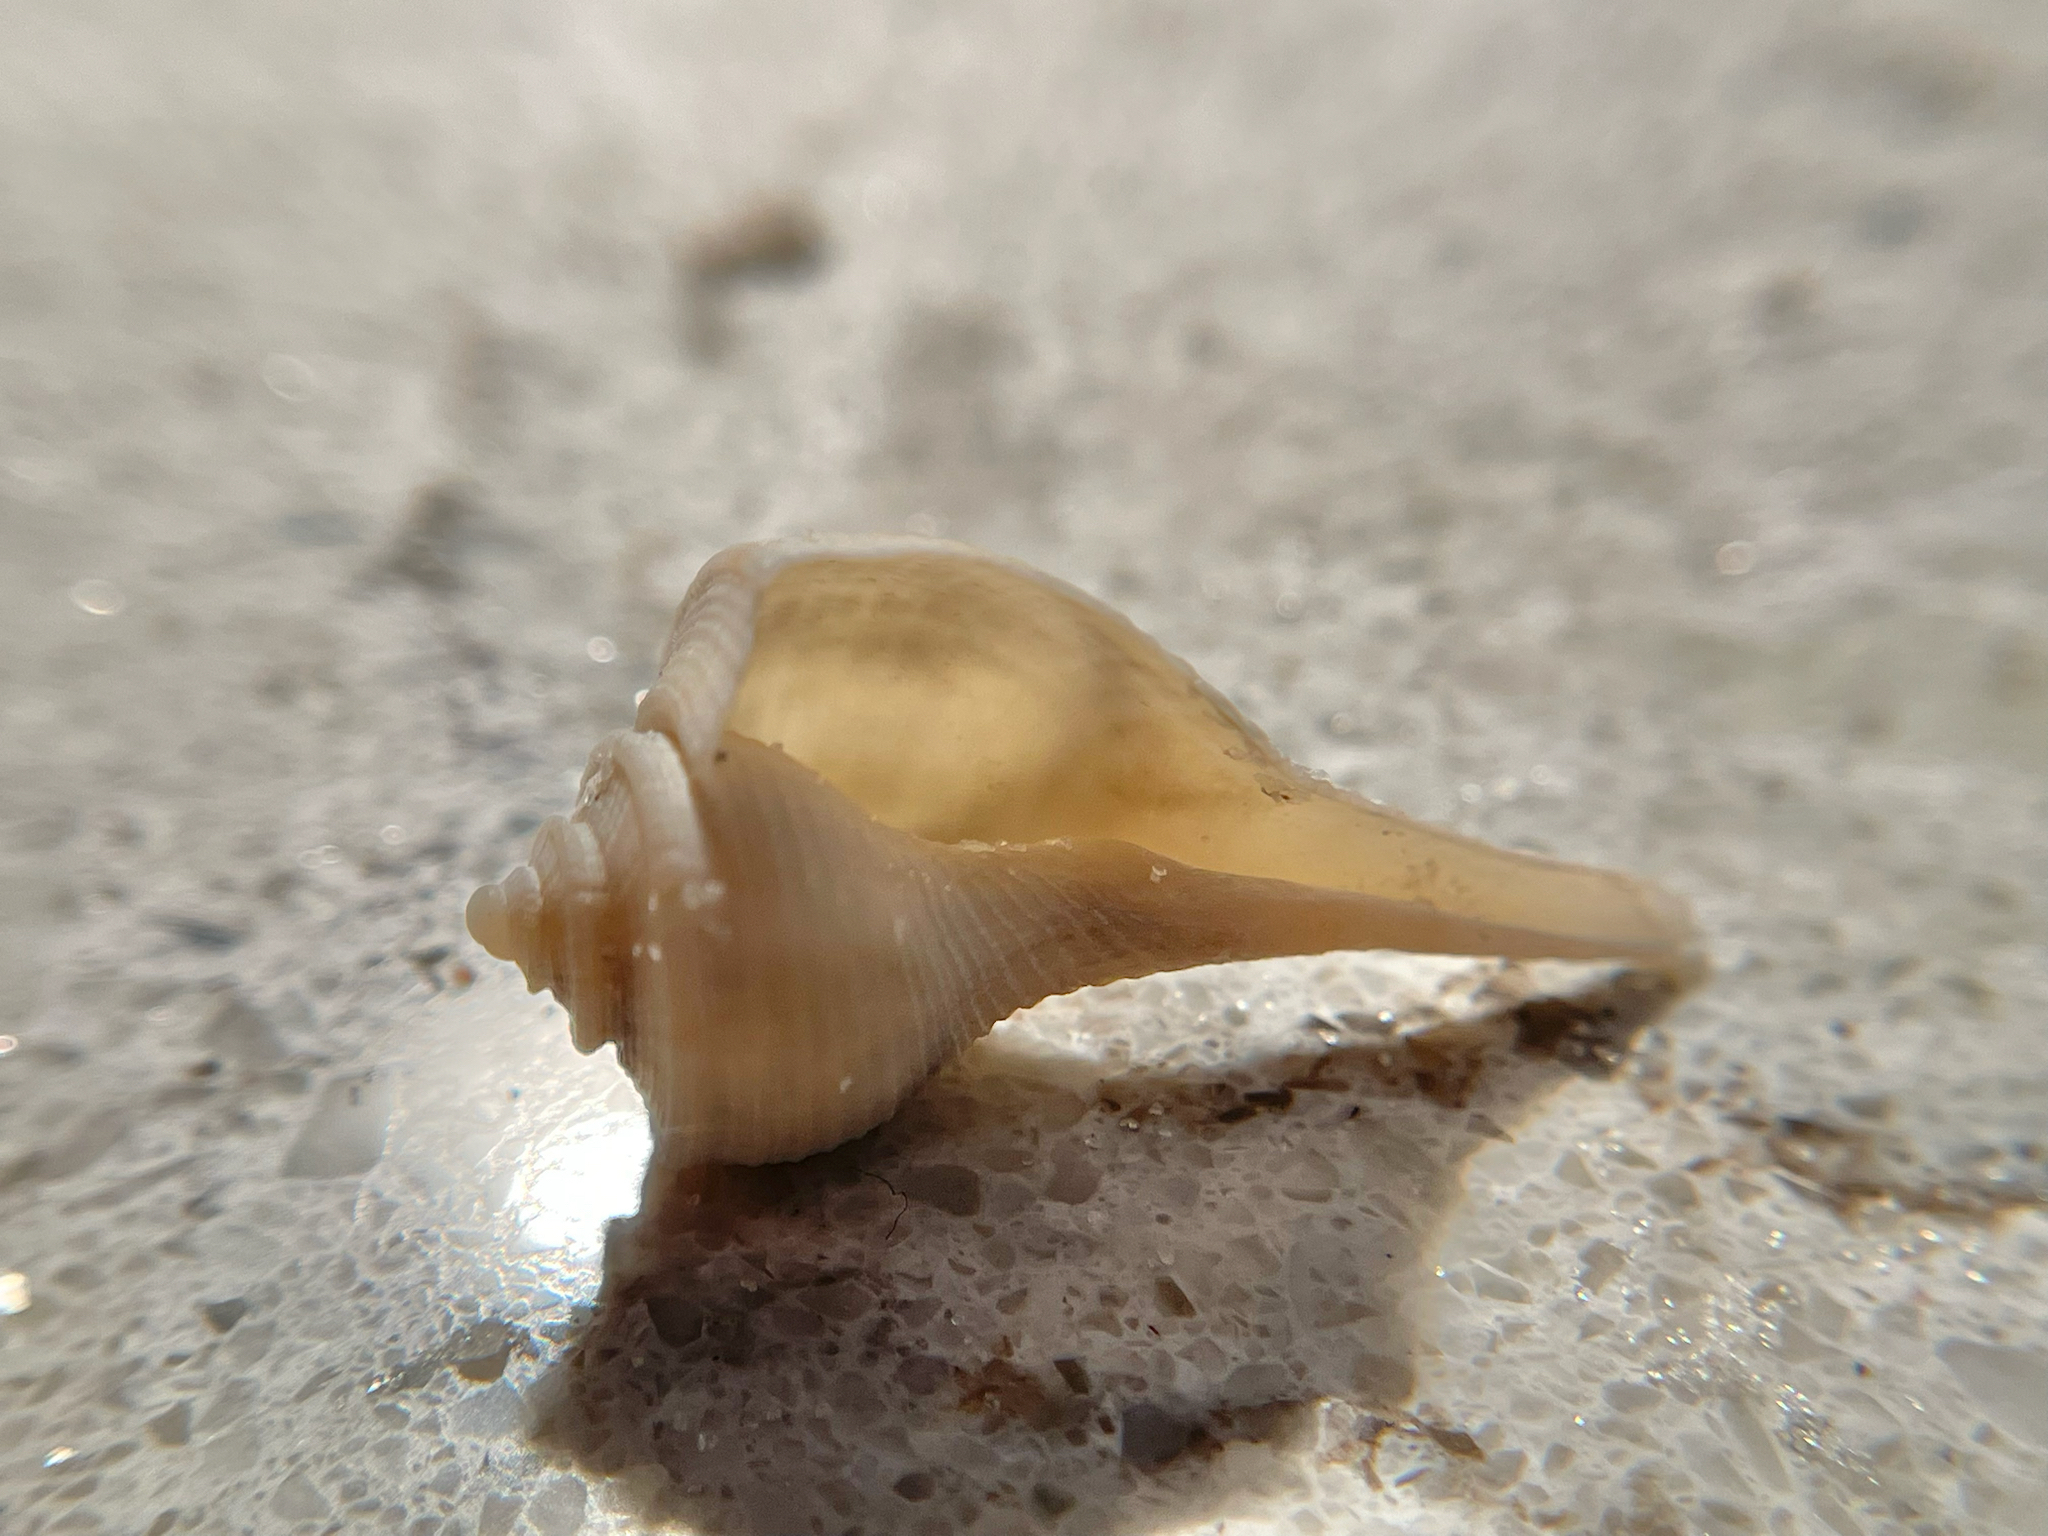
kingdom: Animalia
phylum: Mollusca
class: Gastropoda
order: Neogastropoda
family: Busyconidae
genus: Fulguropsis
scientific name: Fulguropsis pyruloides
